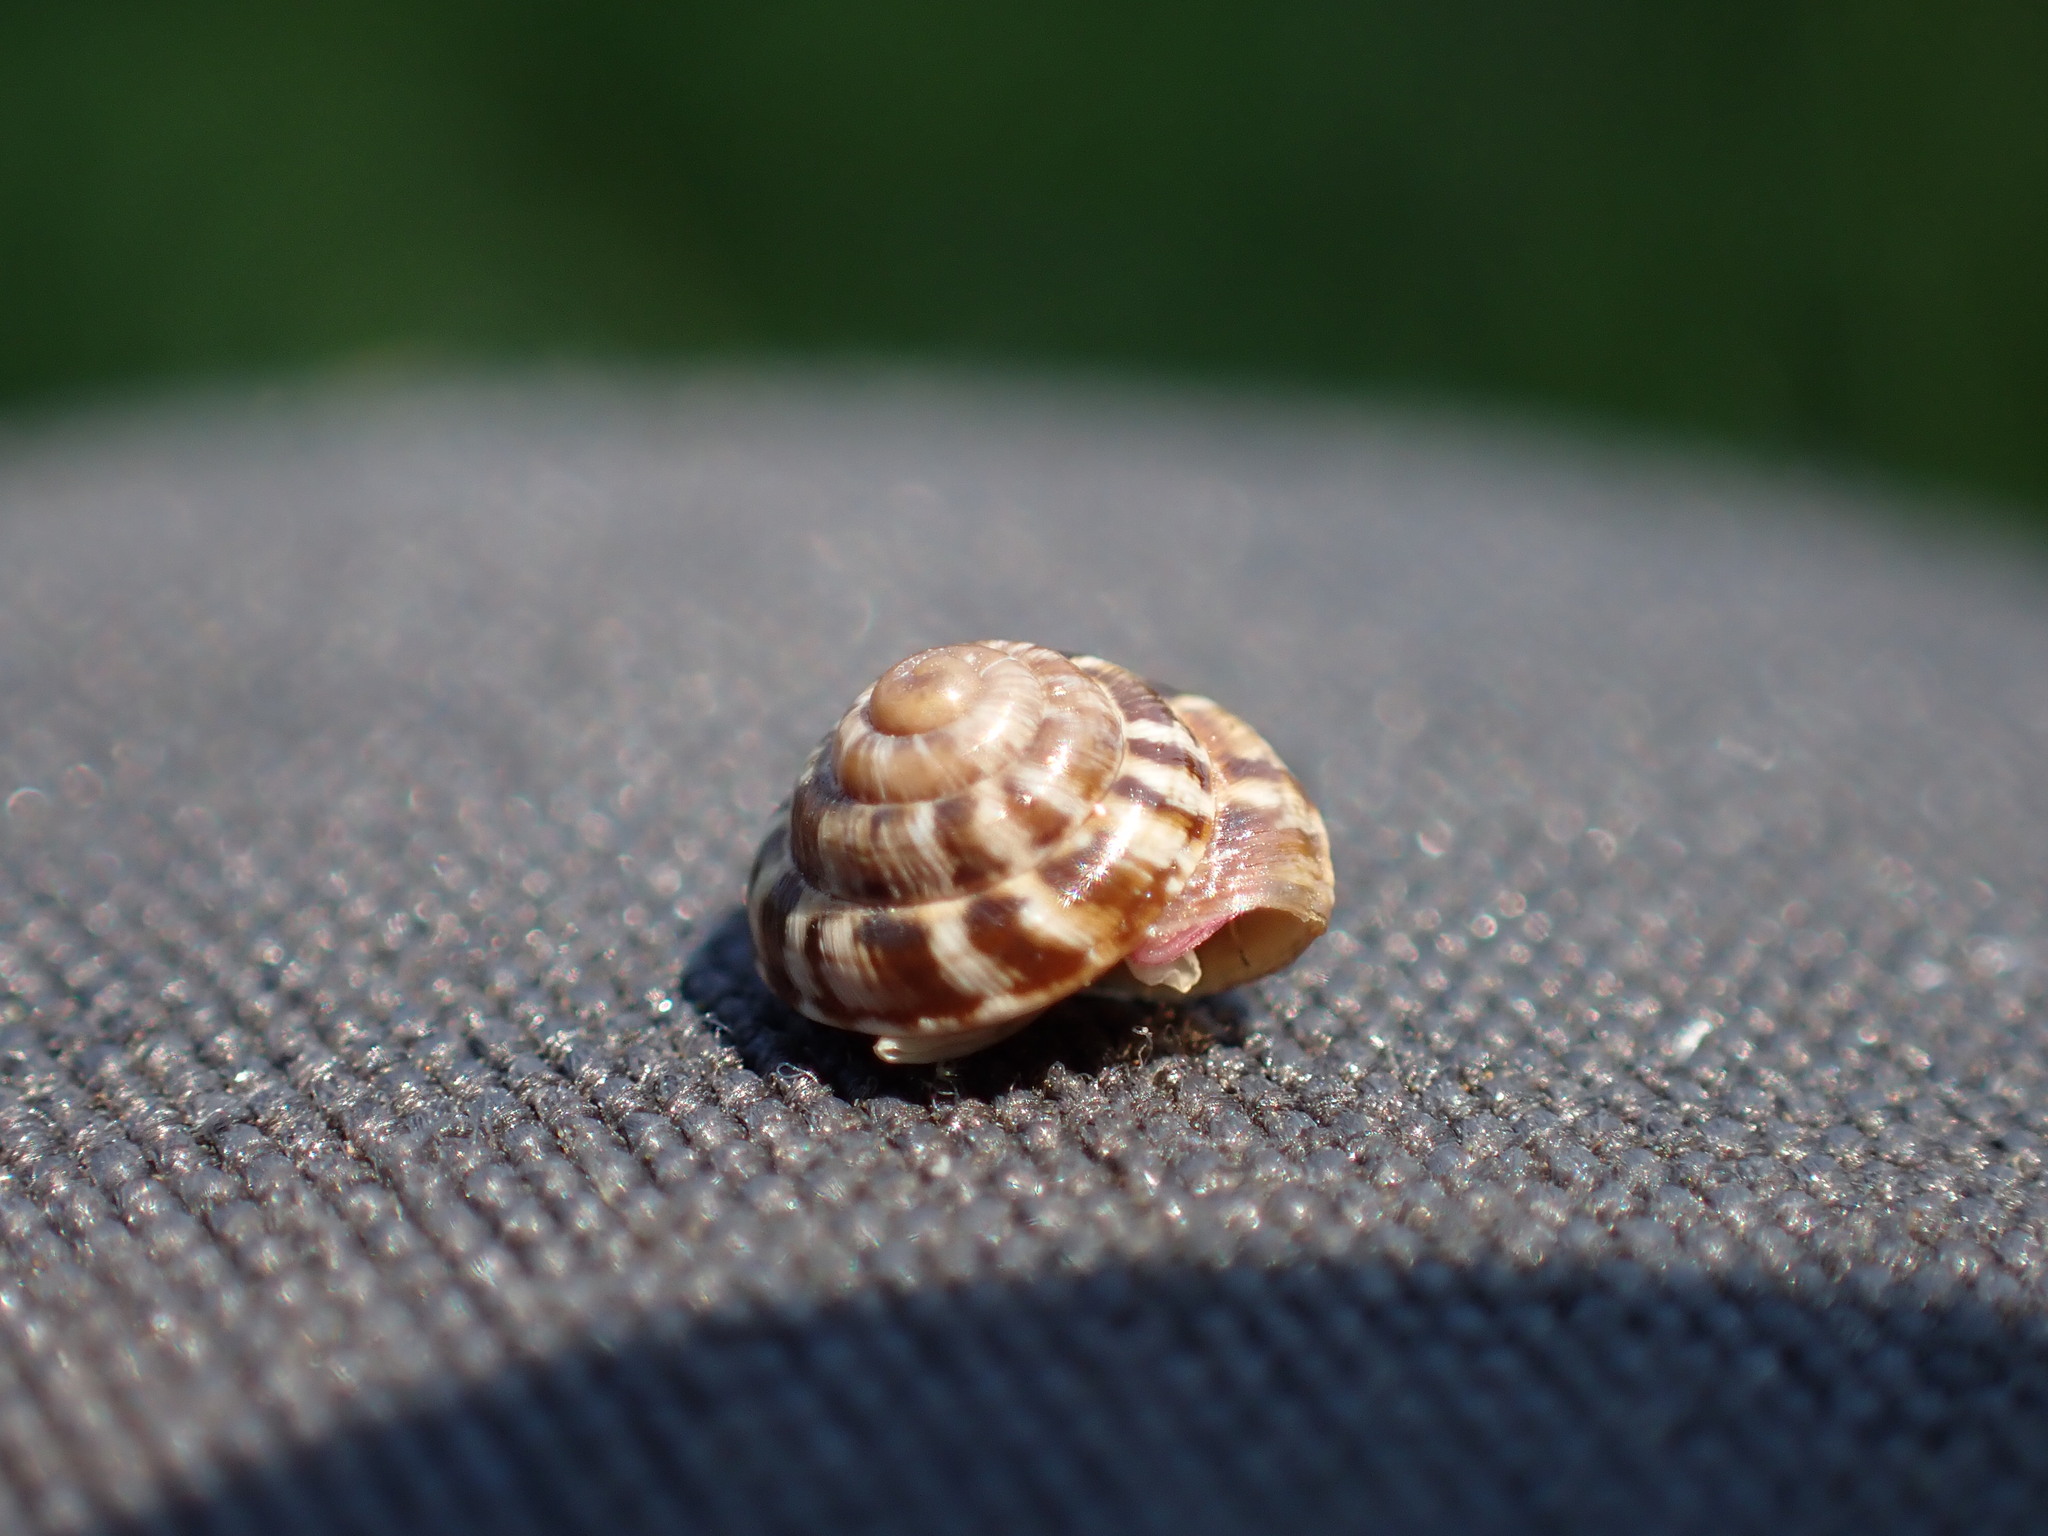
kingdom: Animalia
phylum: Mollusca
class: Gastropoda
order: Stylommatophora
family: Geomitridae
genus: Trochoidea
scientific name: Trochoidea trochoides
